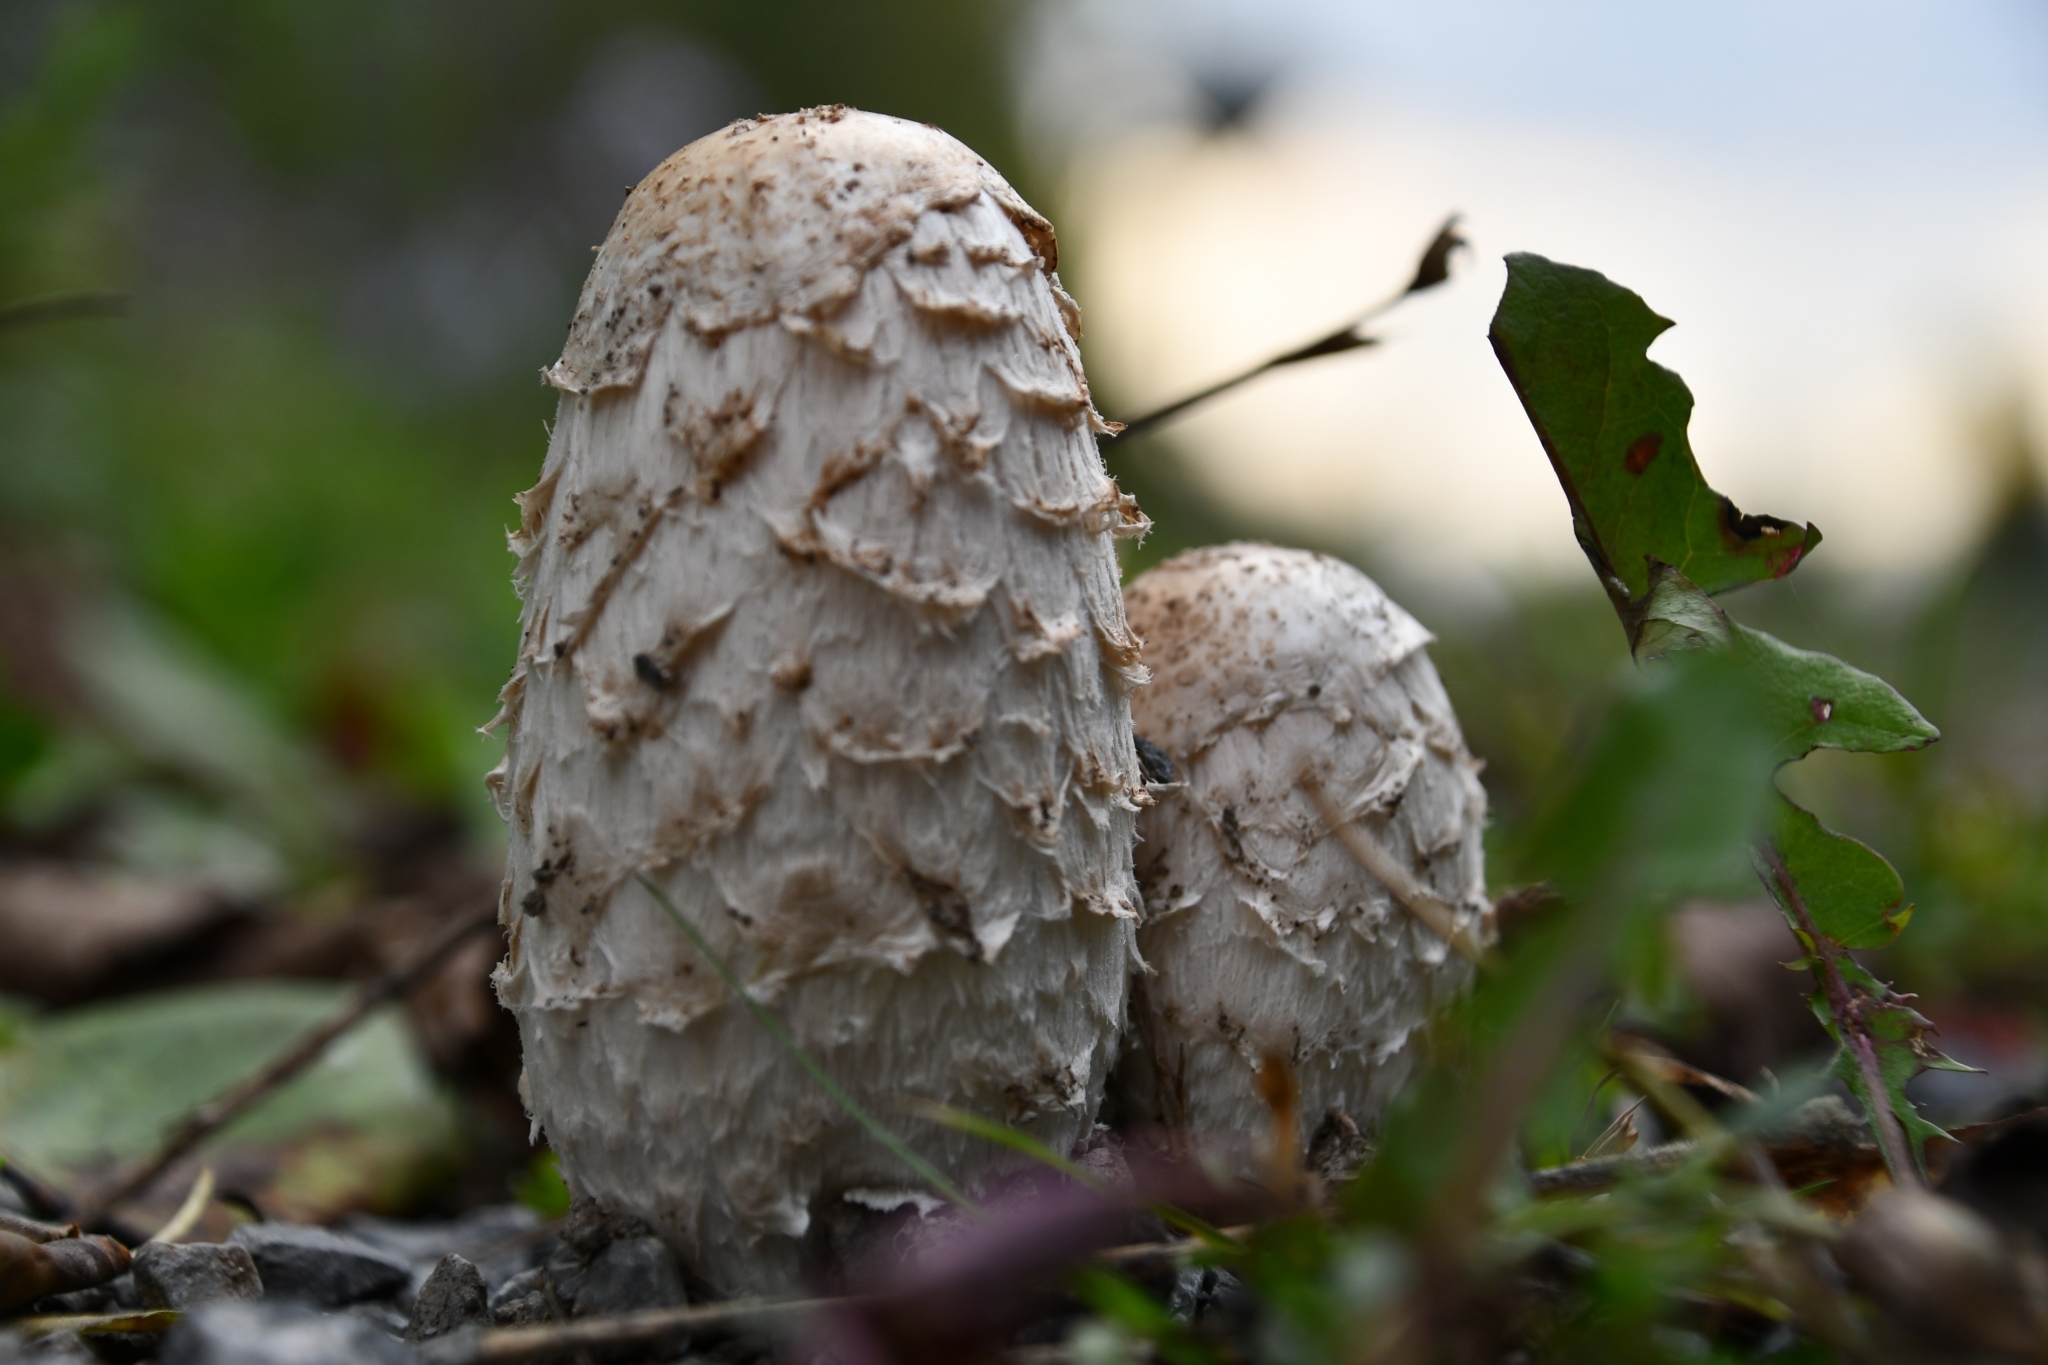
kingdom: Fungi
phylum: Basidiomycota
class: Agaricomycetes
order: Agaricales
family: Agaricaceae
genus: Coprinus
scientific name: Coprinus comatus
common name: Lawyer's wig
